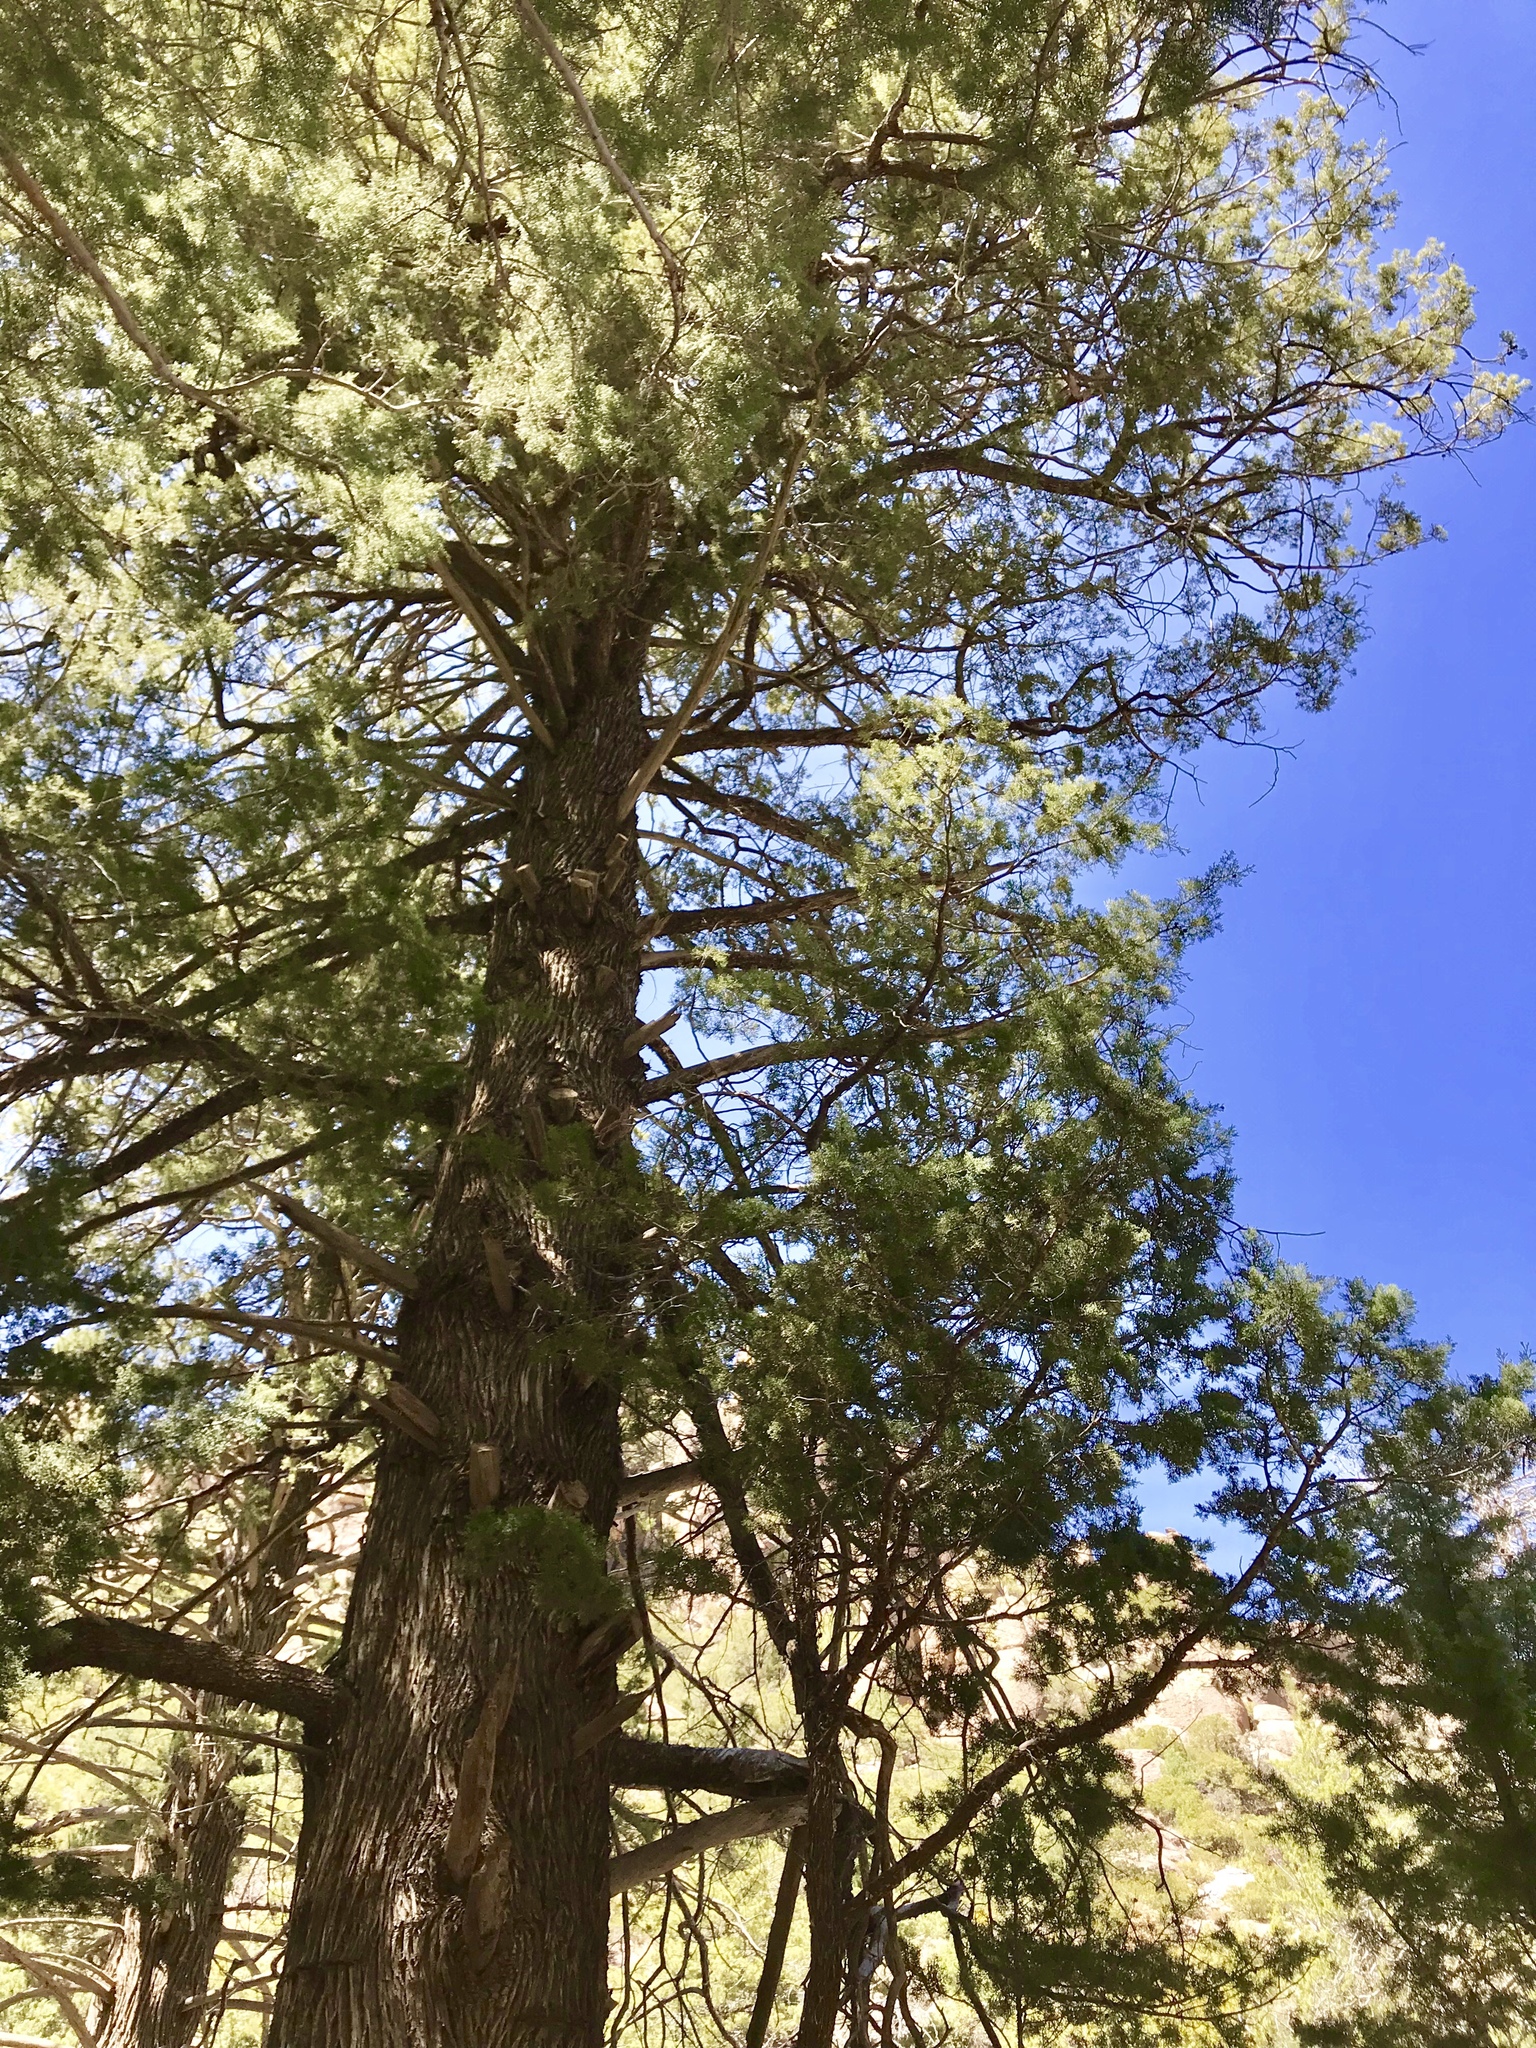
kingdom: Plantae
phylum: Tracheophyta
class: Pinopsida
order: Pinales
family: Cupressaceae
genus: Cupressus
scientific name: Cupressus arizonica
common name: Arizona cypress
